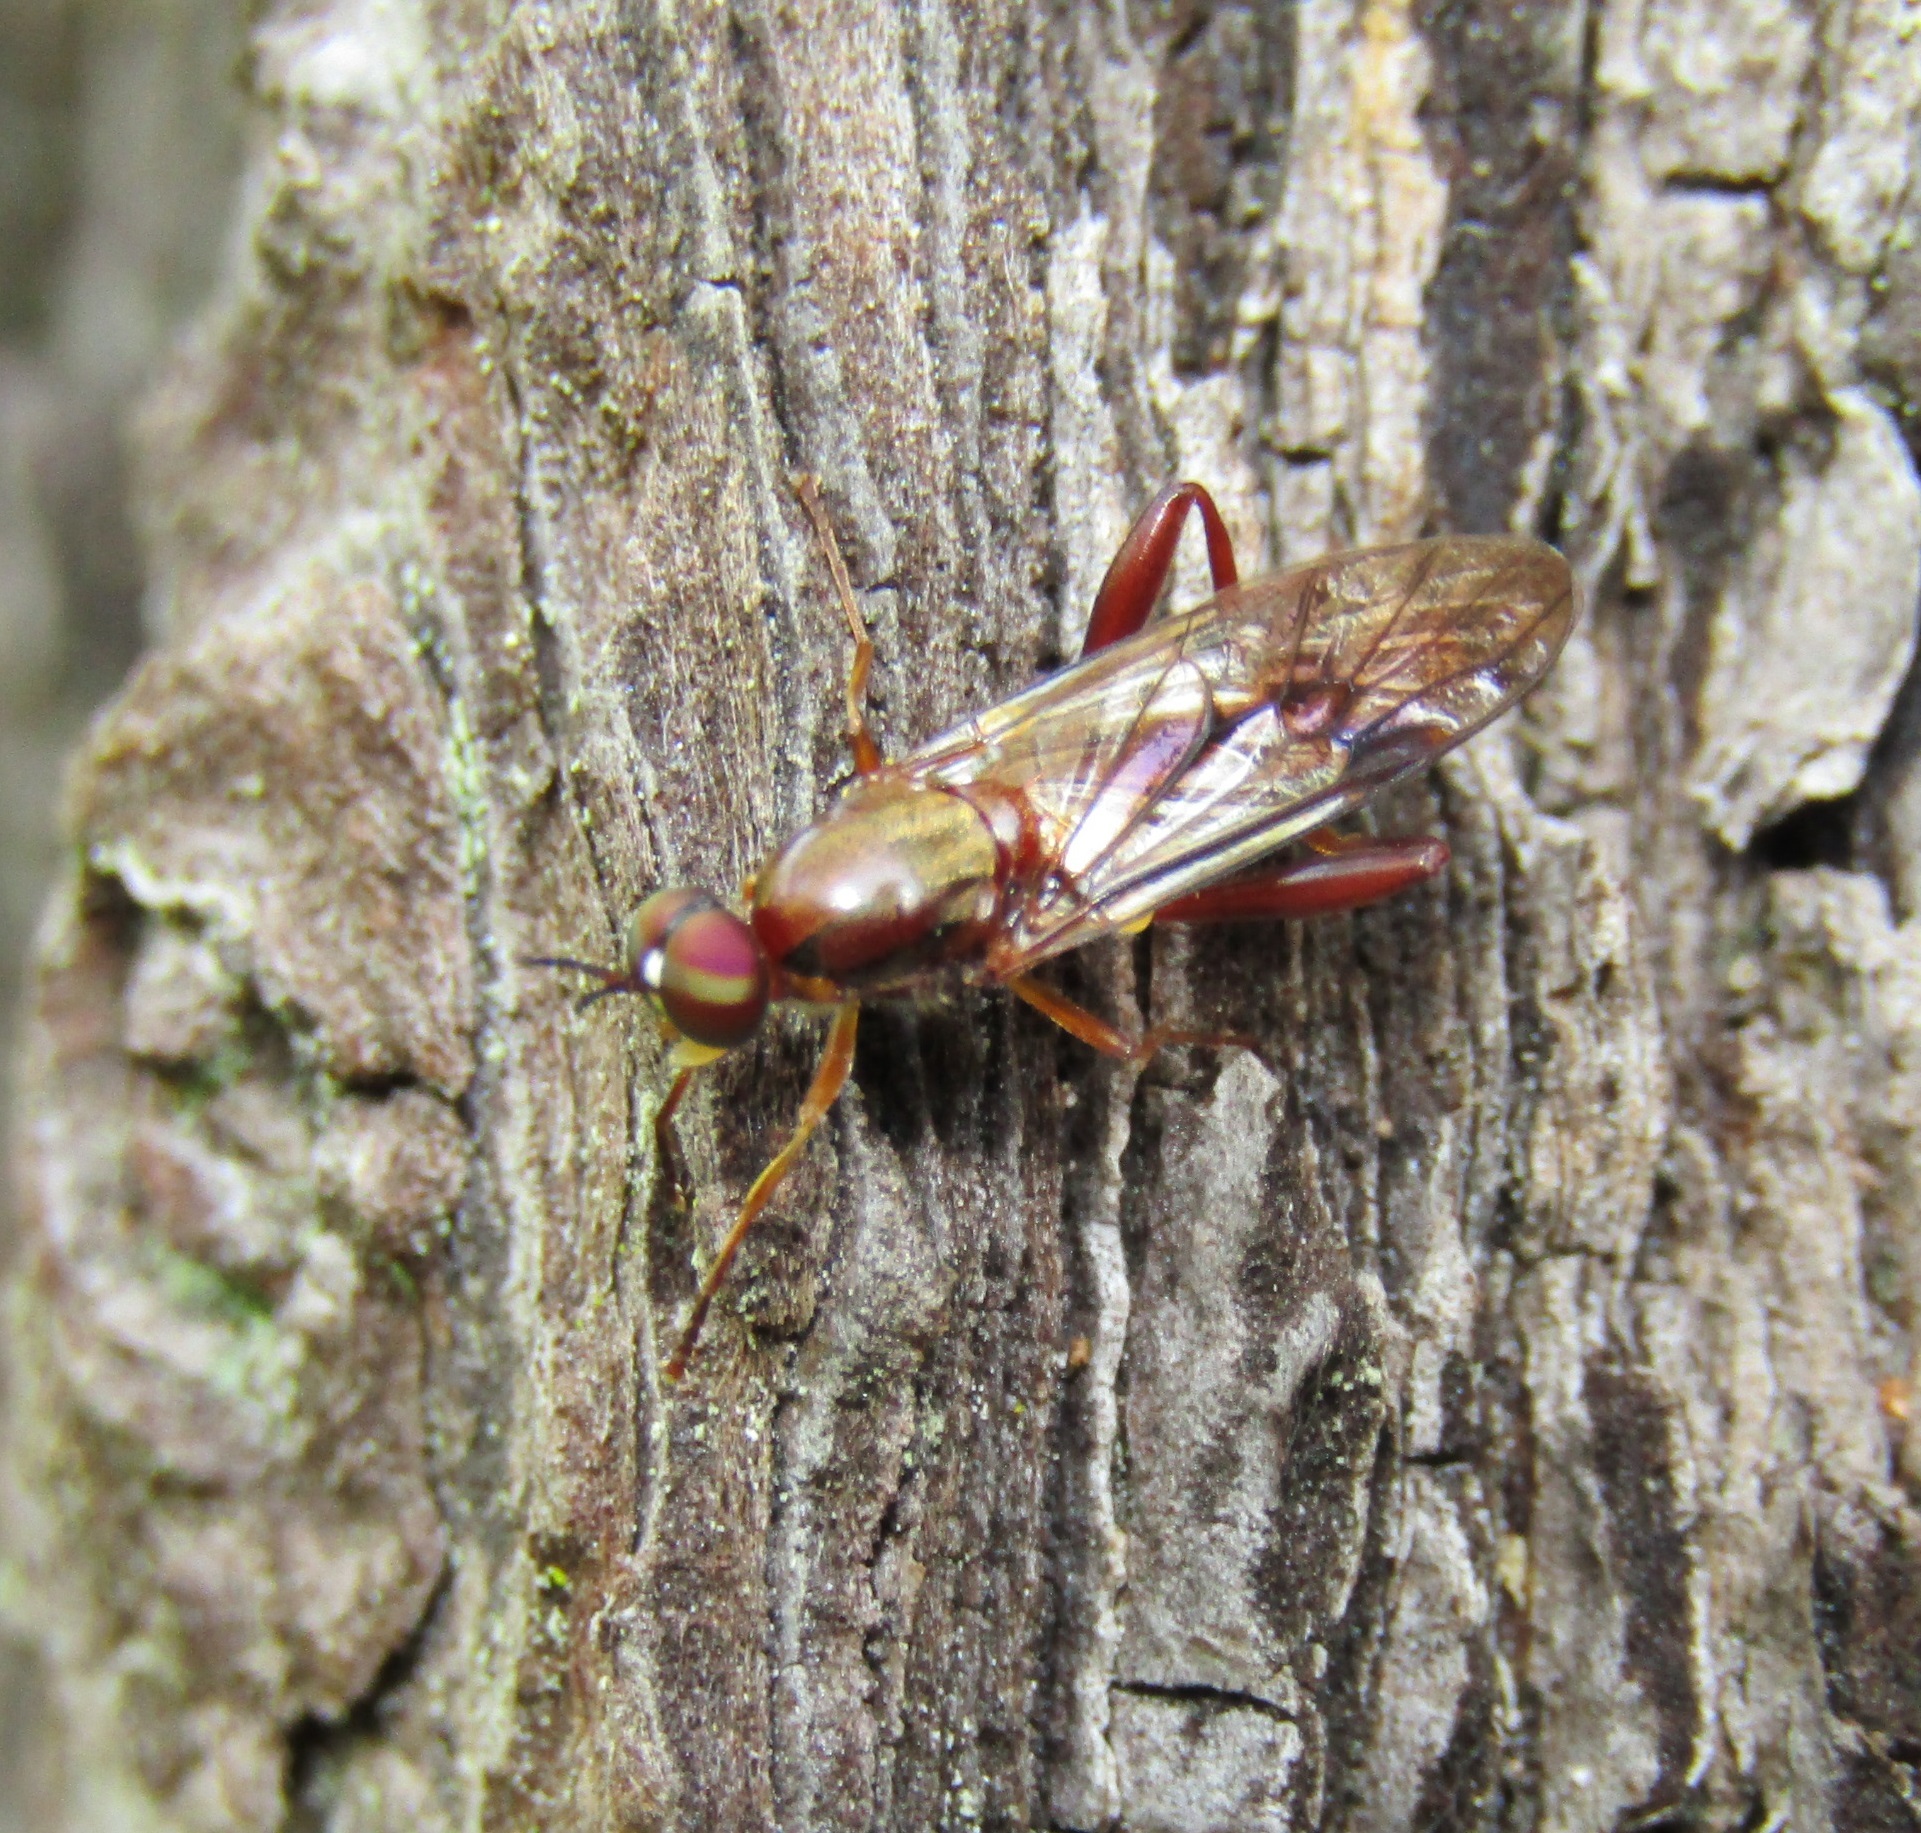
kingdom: Animalia
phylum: Arthropoda
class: Insecta
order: Diptera
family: Stratiomyidae
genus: Benhamyia
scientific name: Benhamyia straznitzkii
